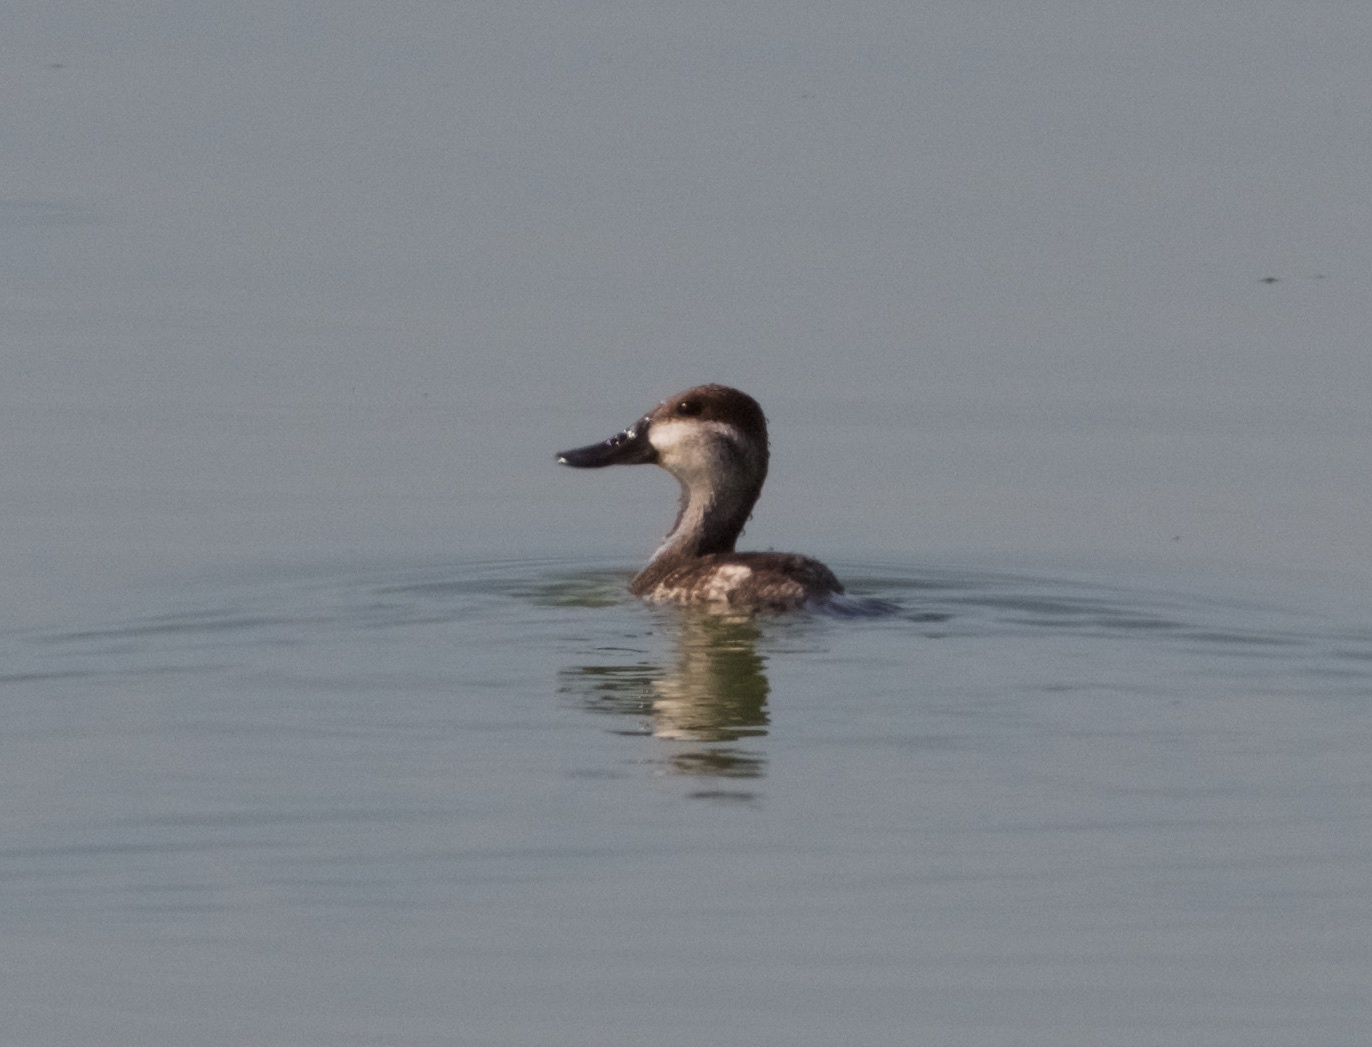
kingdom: Animalia
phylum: Chordata
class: Aves
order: Anseriformes
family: Anatidae
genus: Oxyura
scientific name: Oxyura jamaicensis
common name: Ruddy duck
